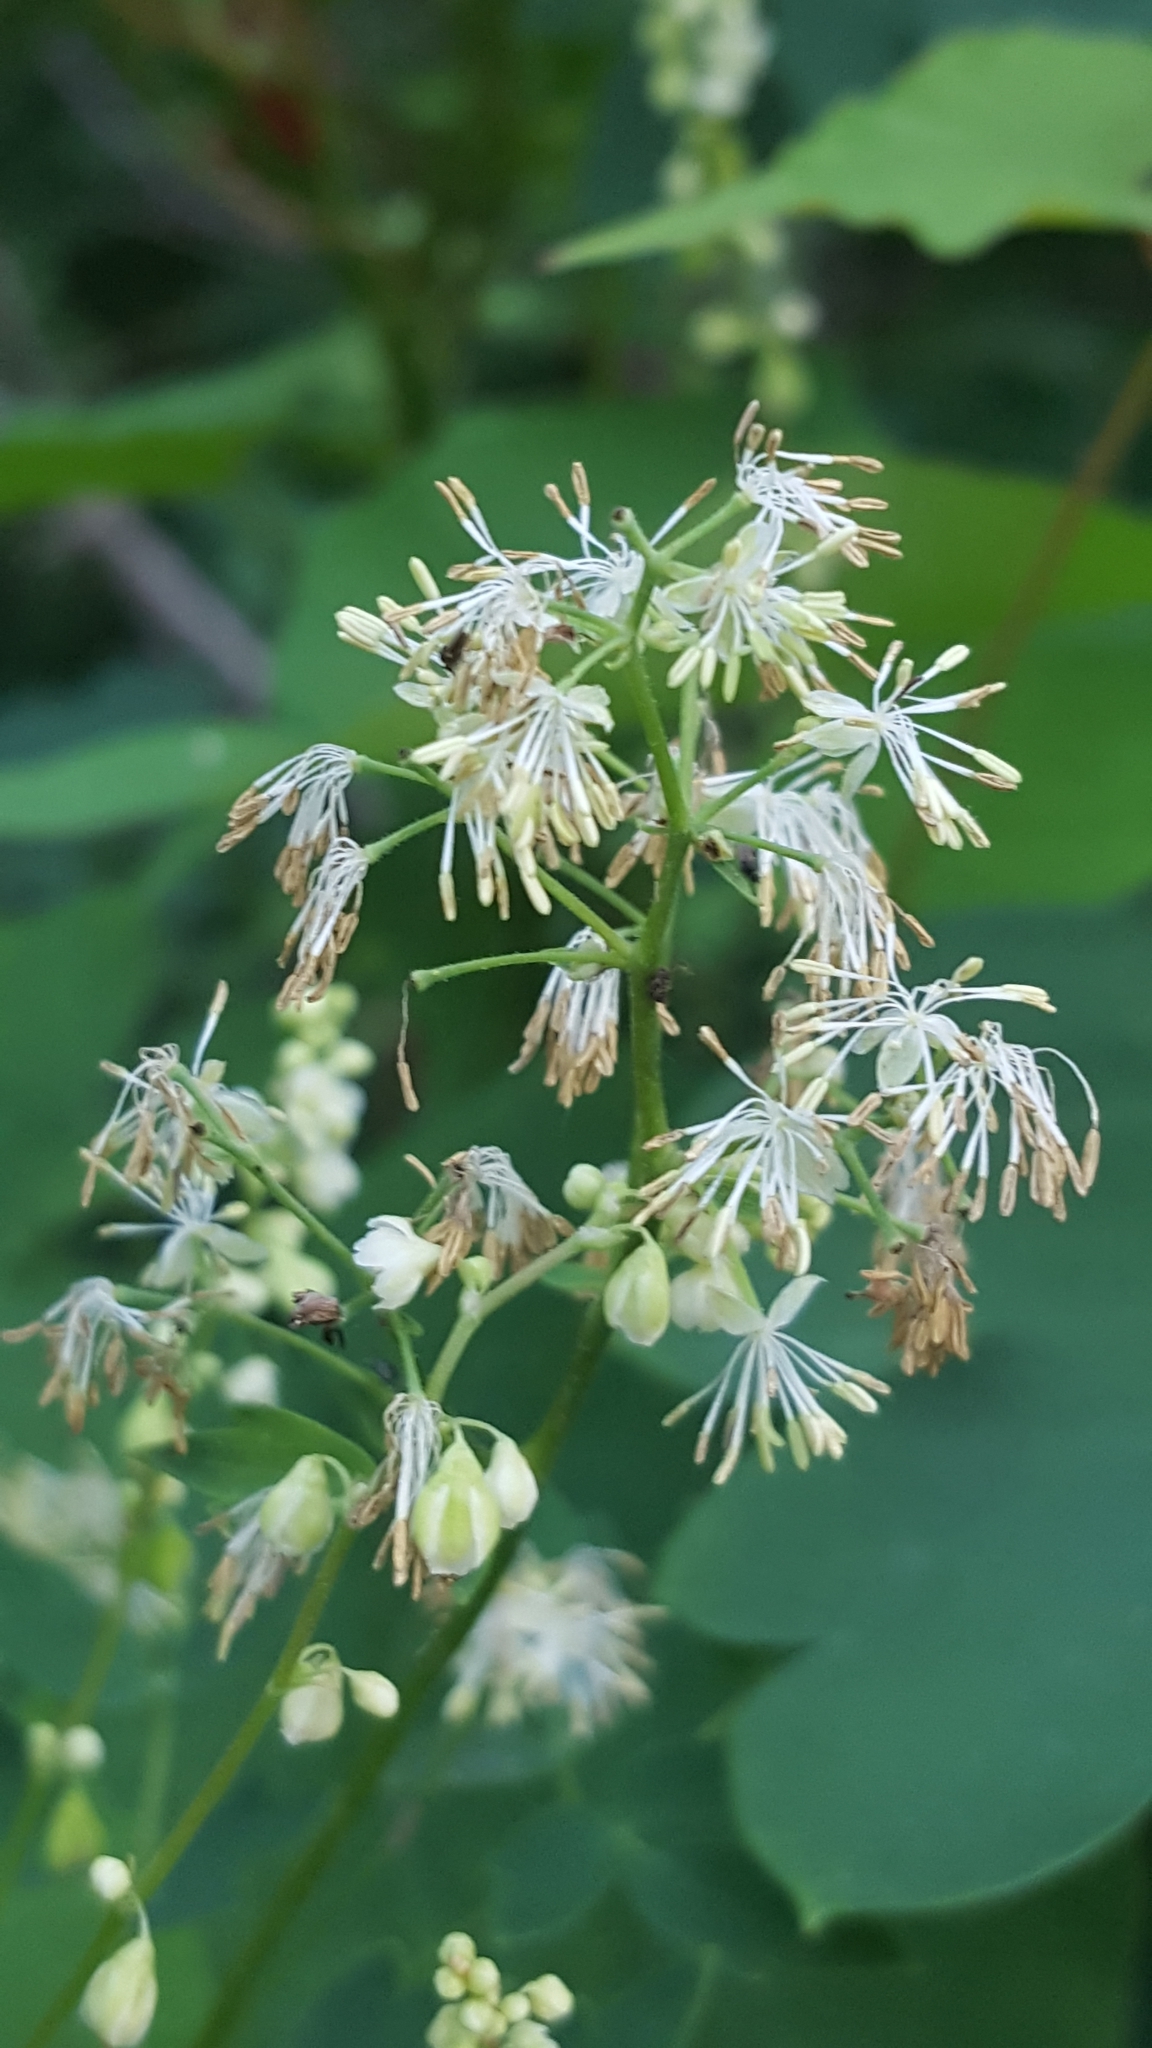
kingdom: Plantae
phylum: Tracheophyta
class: Magnoliopsida
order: Ranunculales
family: Ranunculaceae
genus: Thalictrum
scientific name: Thalictrum dasycarpum
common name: Purple meadow-rue
